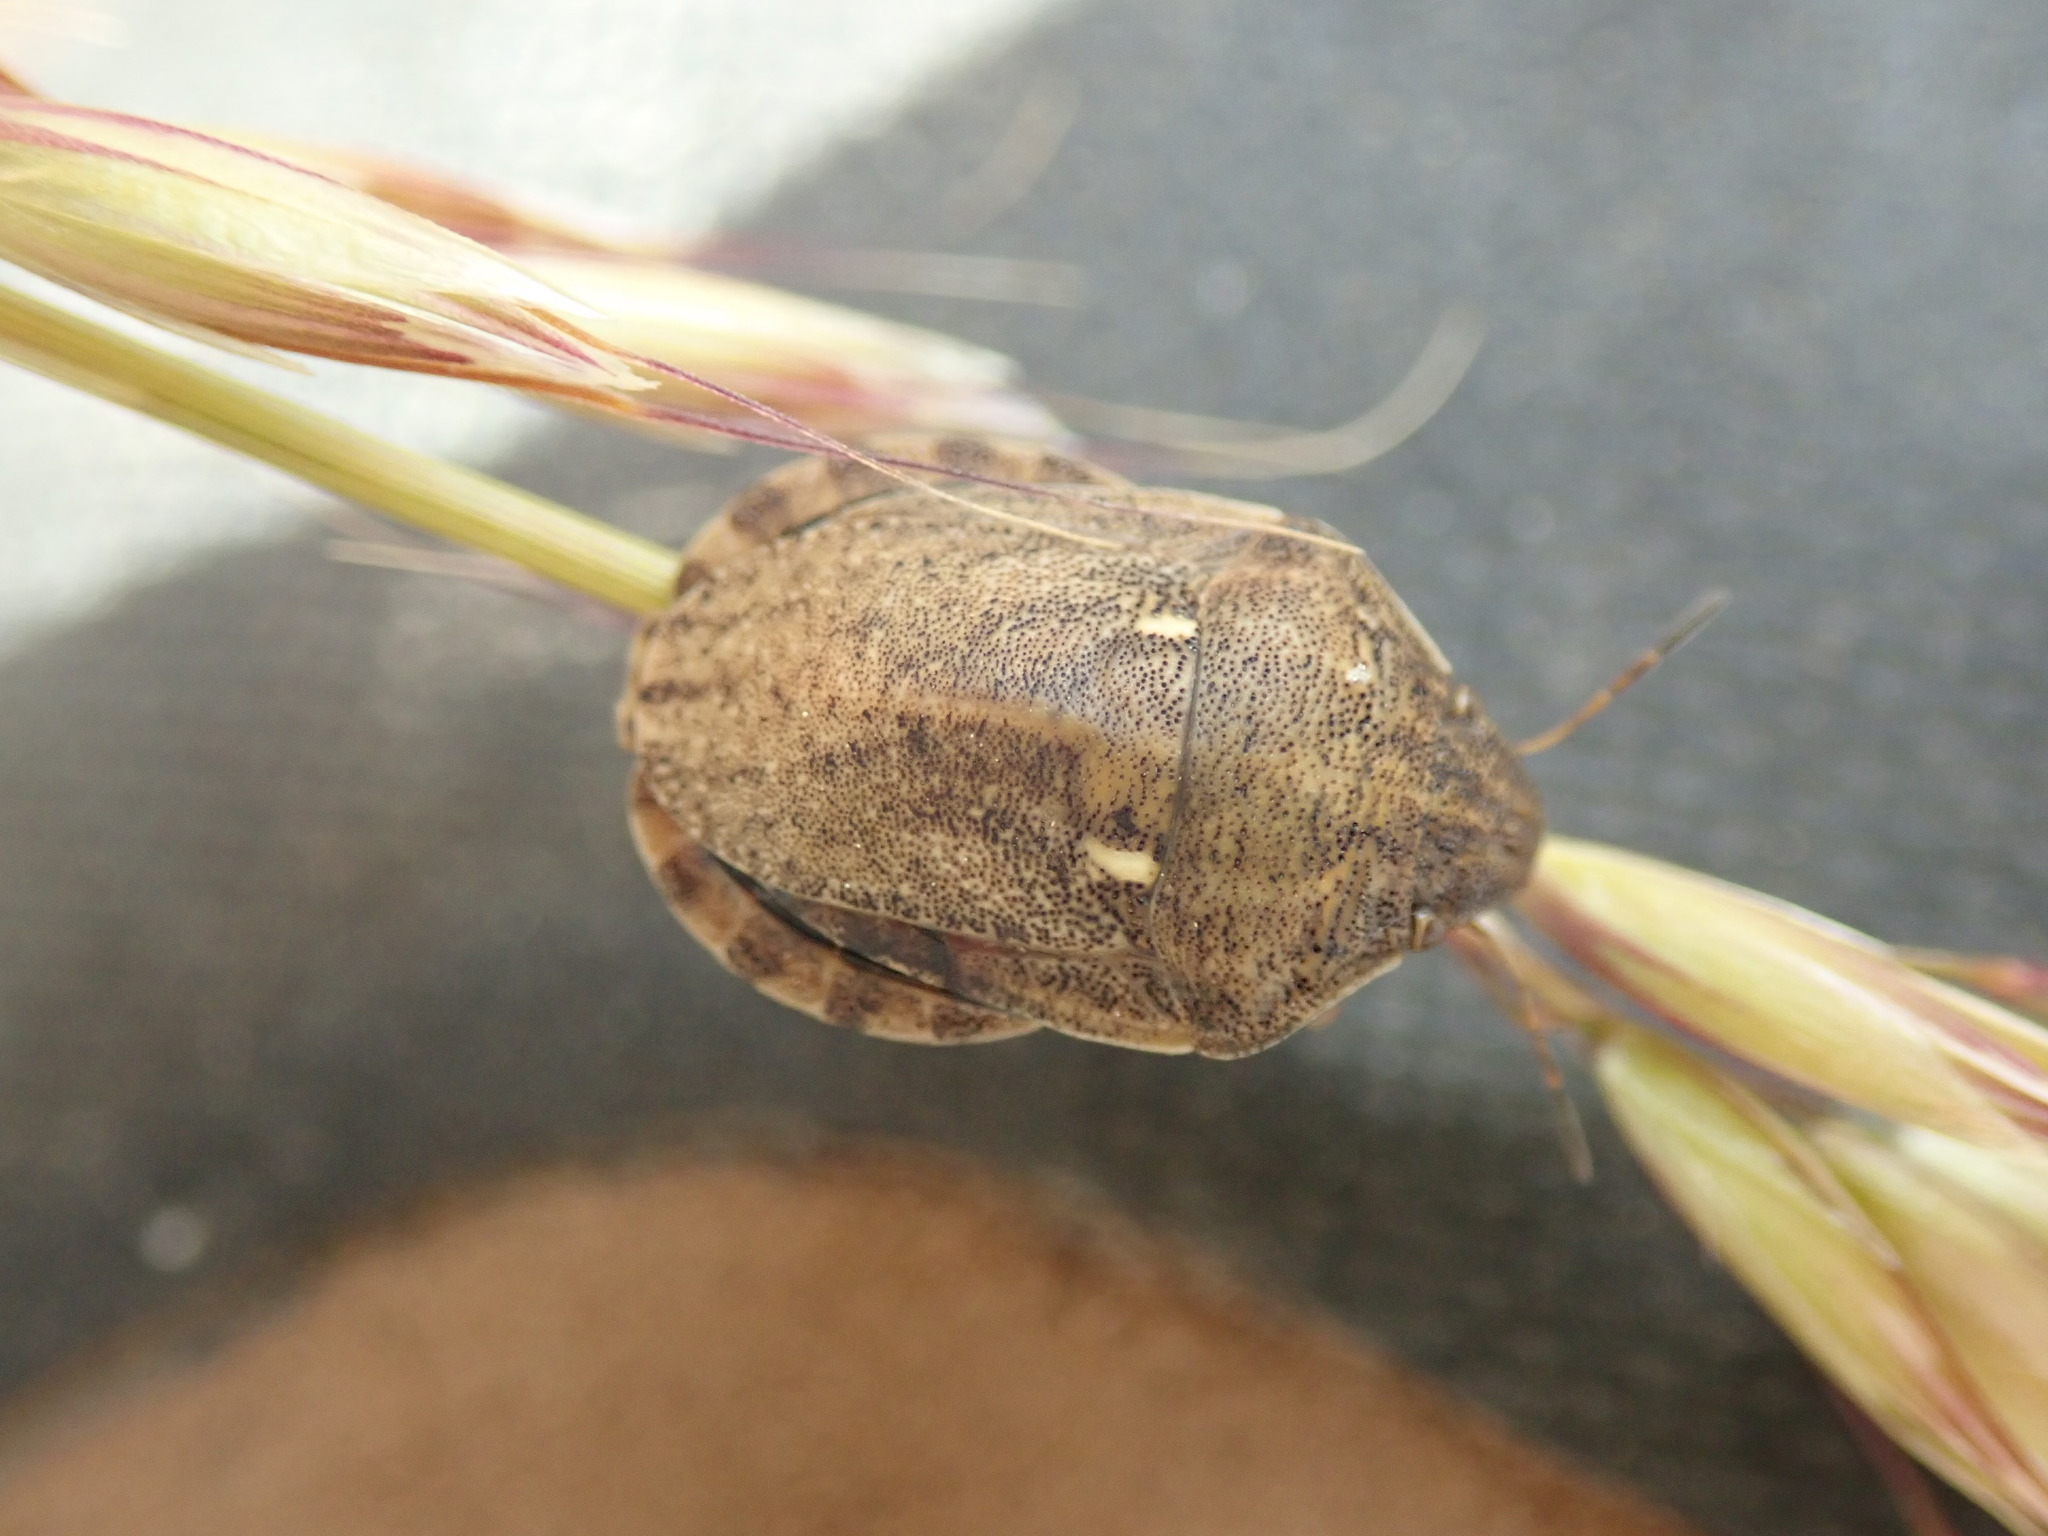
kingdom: Animalia
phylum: Arthropoda
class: Insecta
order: Hemiptera
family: Scutelleridae
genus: Eurygaster
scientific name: Eurygaster maura
